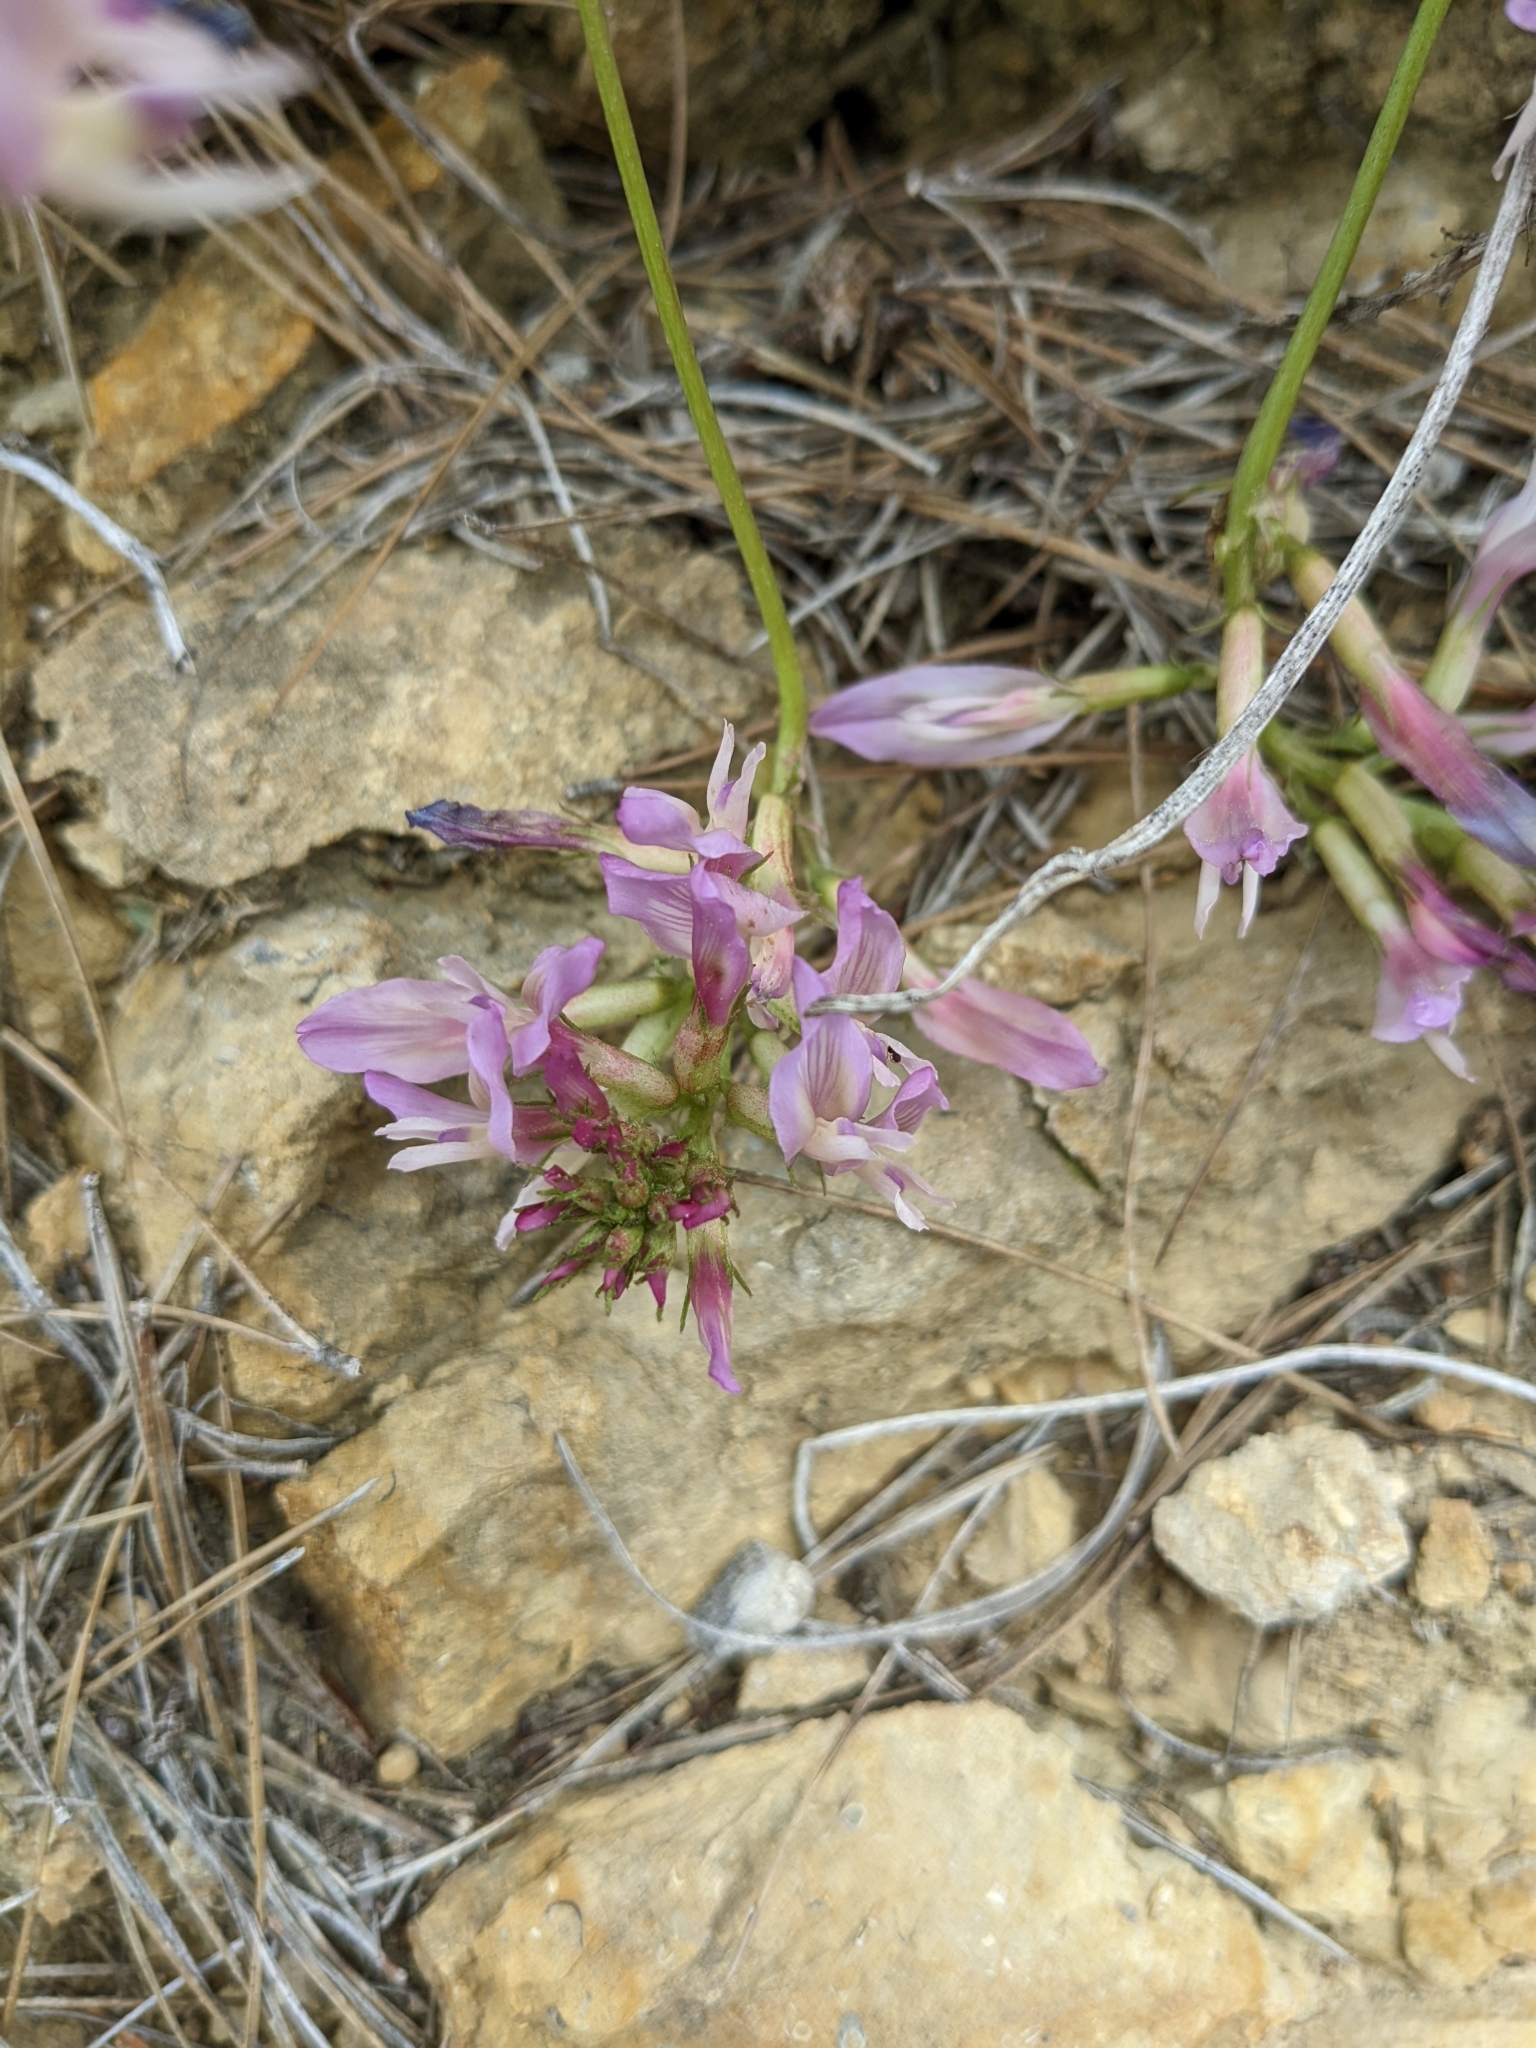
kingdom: Plantae
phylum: Tracheophyta
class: Magnoliopsida
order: Fabales
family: Fabaceae
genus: Astragalus
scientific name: Astragalus monspessulanus
